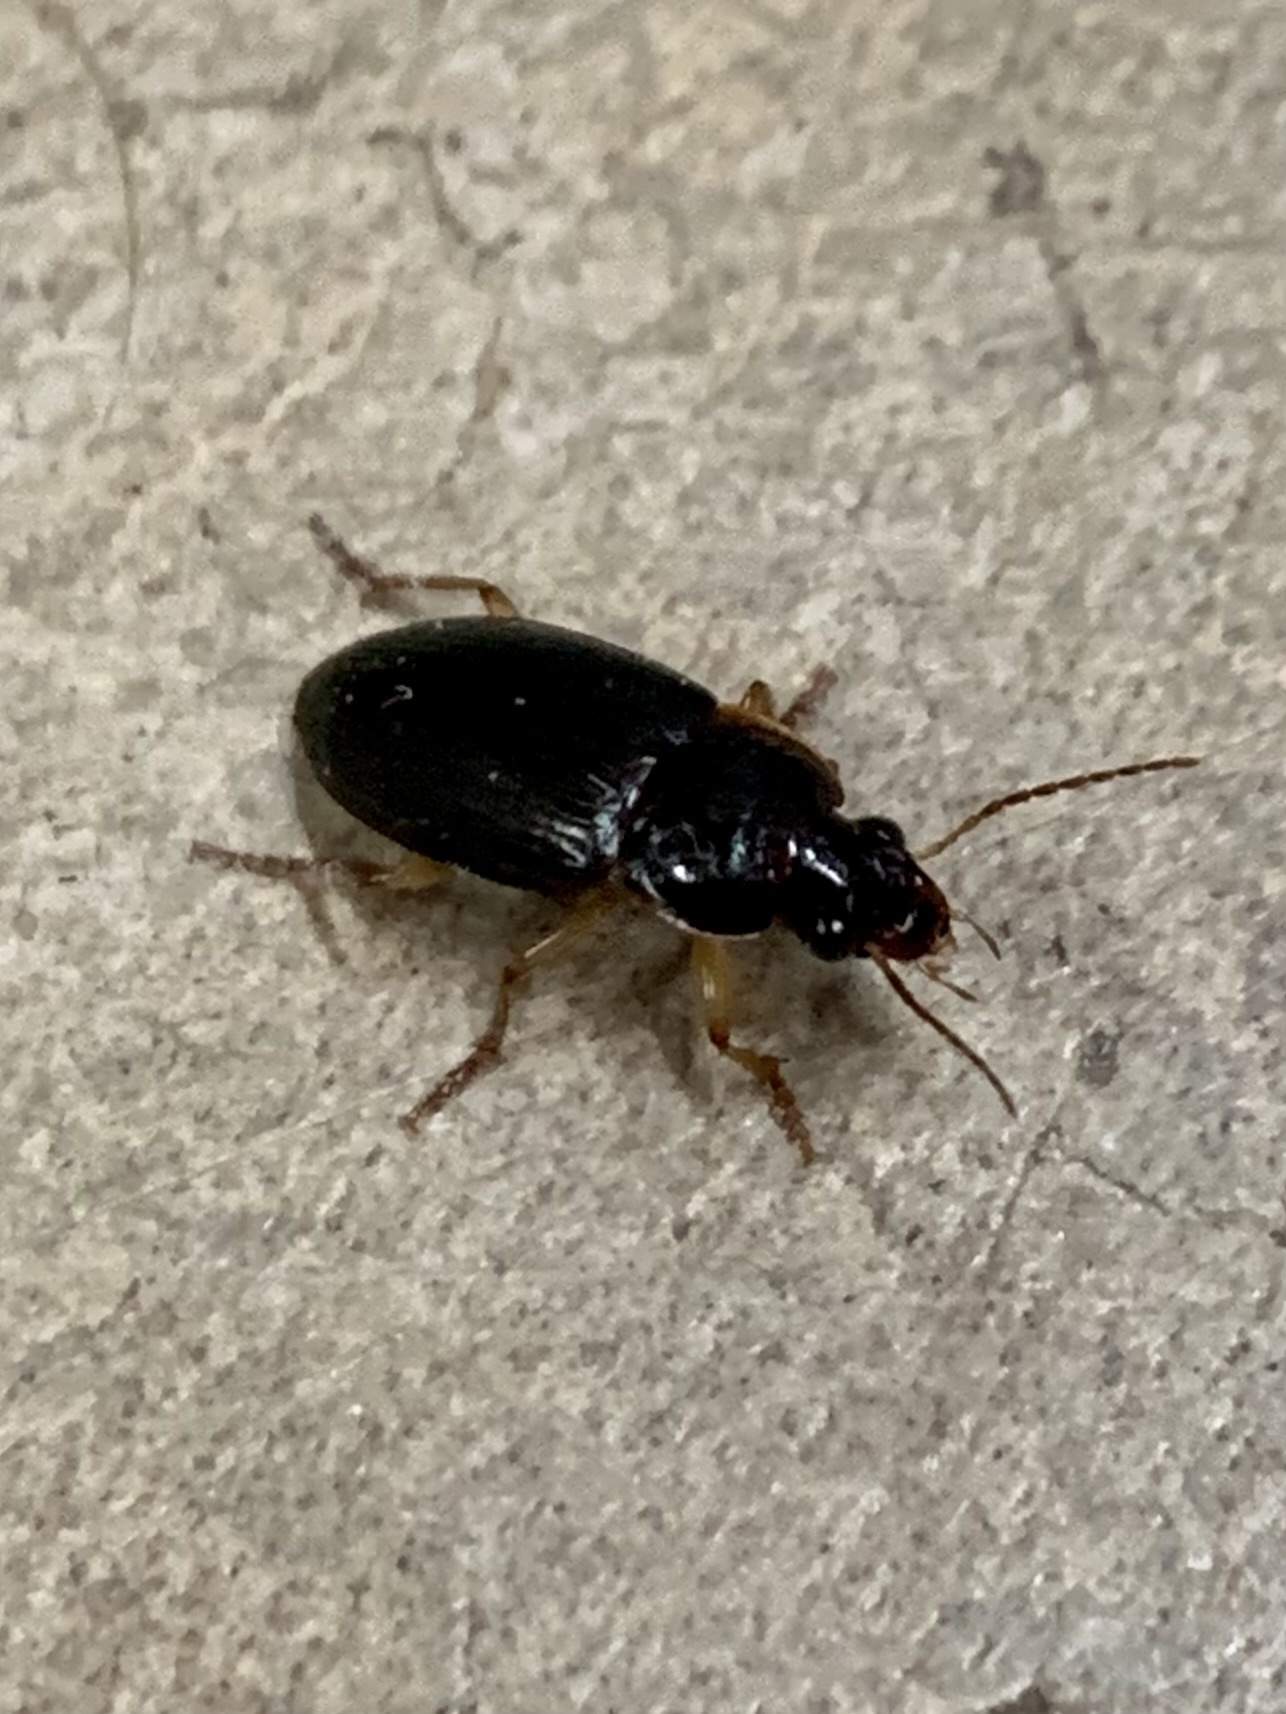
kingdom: Animalia
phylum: Arthropoda
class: Insecta
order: Coleoptera
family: Carabidae
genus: Notiobia
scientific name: Notiobia terminata
